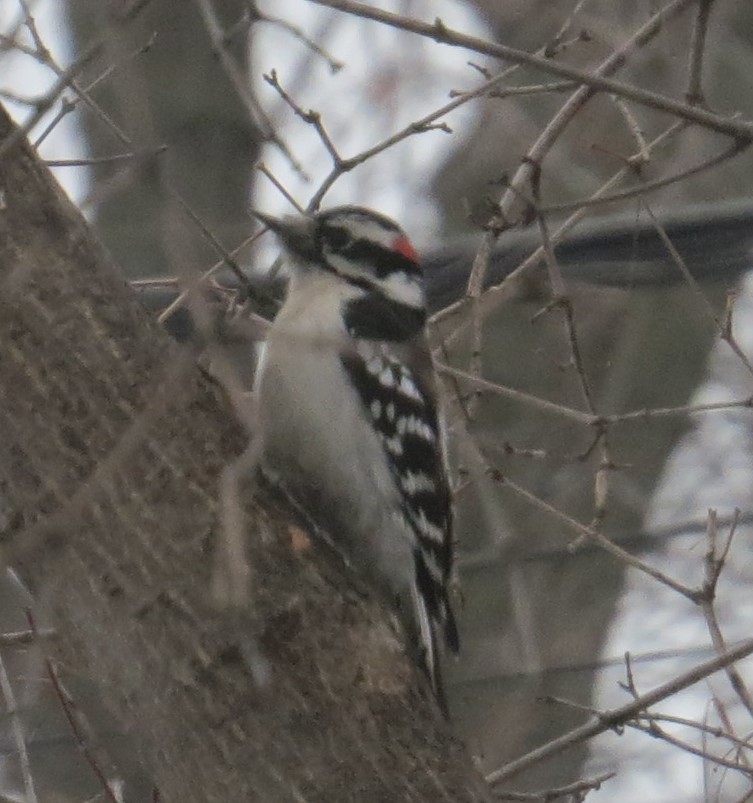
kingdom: Animalia
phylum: Chordata
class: Aves
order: Piciformes
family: Picidae
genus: Dryobates
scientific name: Dryobates pubescens
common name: Downy woodpecker
